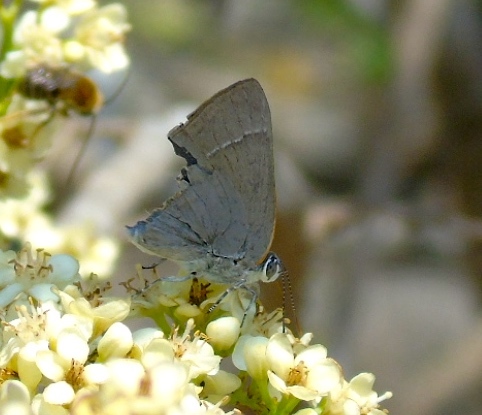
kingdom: Animalia
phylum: Arthropoda
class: Insecta
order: Lepidoptera
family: Lycaenidae
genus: Rekoa
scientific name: Rekoa
